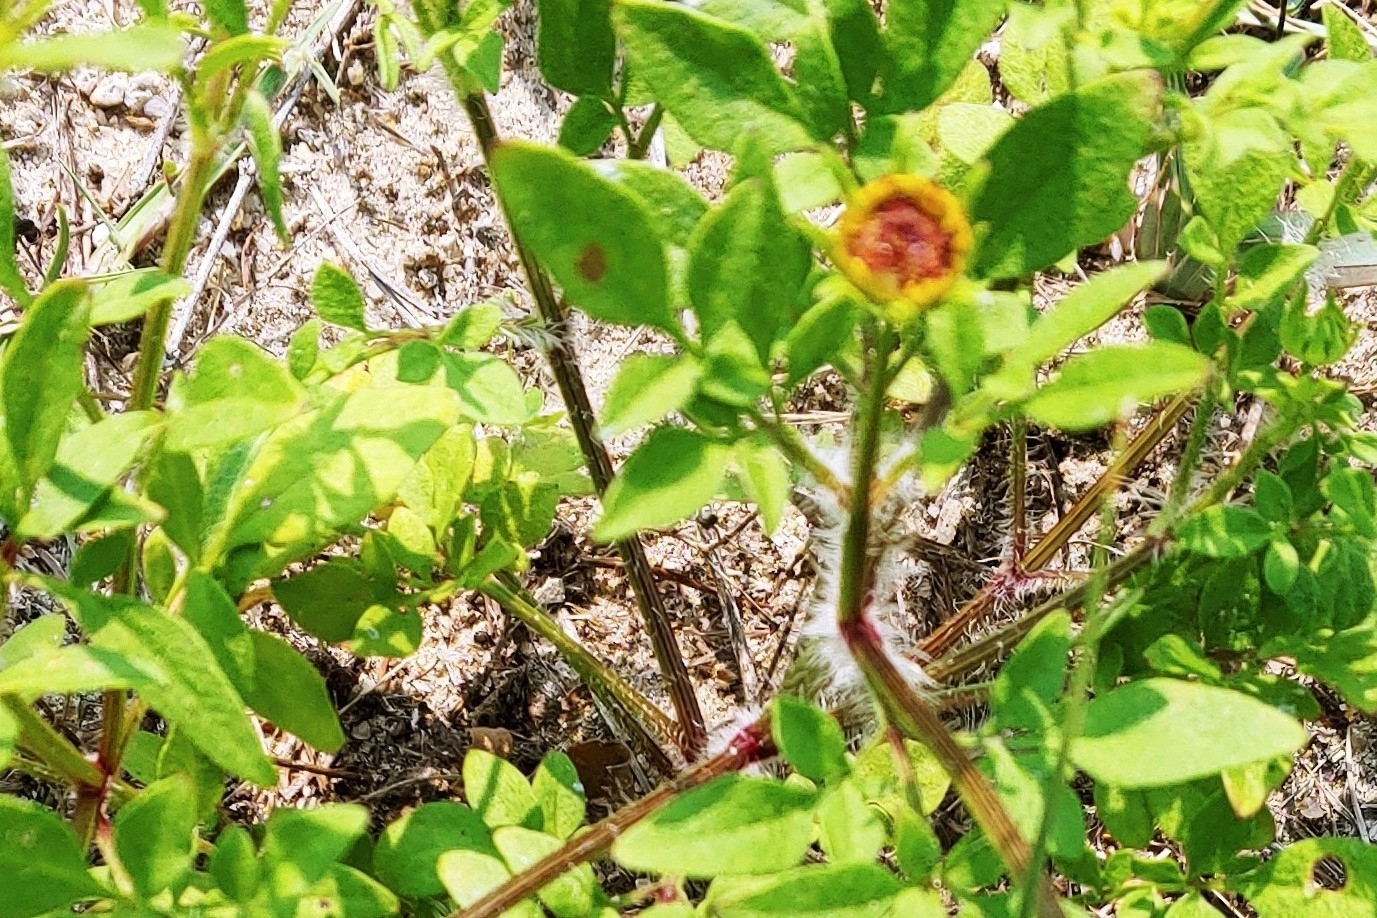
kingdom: Plantae
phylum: Tracheophyta
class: Magnoliopsida
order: Asterales
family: Asteraceae
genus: Coreopsis
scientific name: Coreopsis basalis
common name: Golden-mane coreopsis
